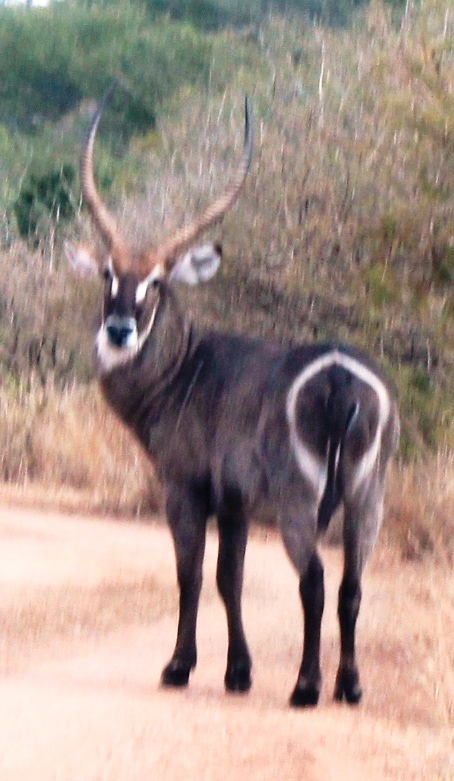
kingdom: Animalia
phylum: Chordata
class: Mammalia
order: Artiodactyla
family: Bovidae
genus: Kobus
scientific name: Kobus ellipsiprymnus
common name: Waterbuck
